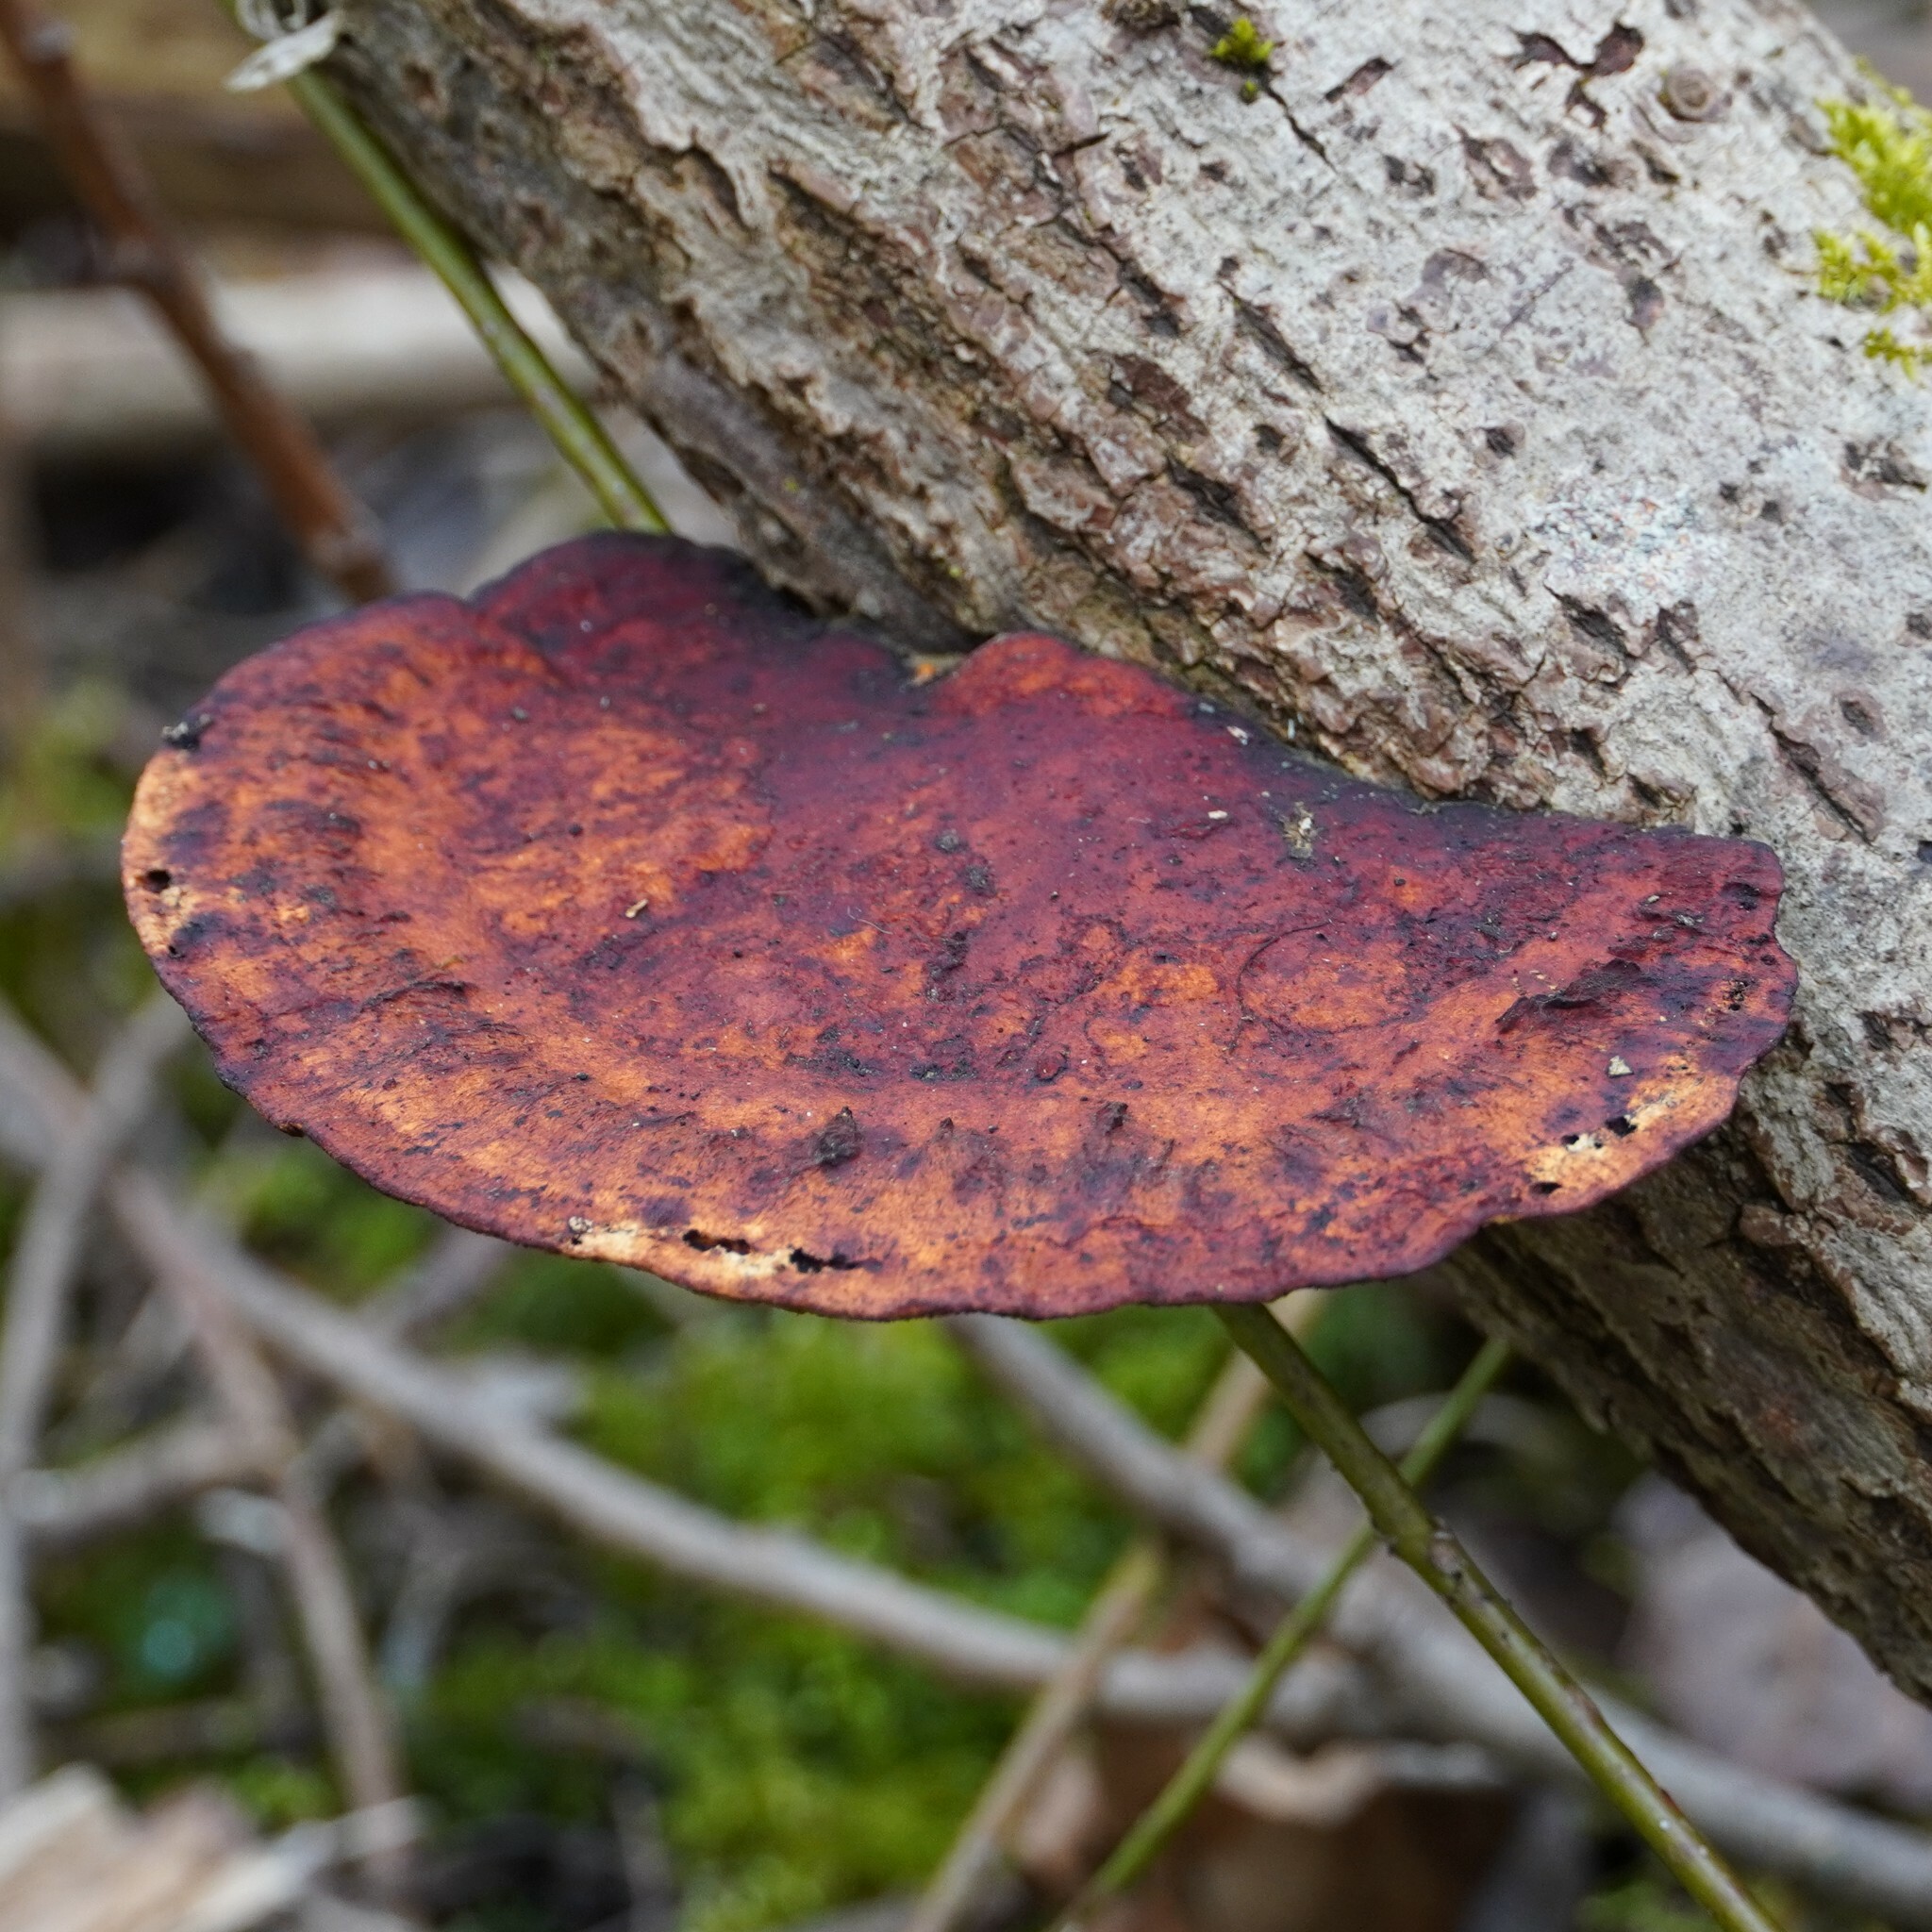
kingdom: Fungi
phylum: Basidiomycota
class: Agaricomycetes
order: Polyporales
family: Polyporaceae
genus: Daedaleopsis
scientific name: Daedaleopsis confragosa
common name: Blushing bracket
